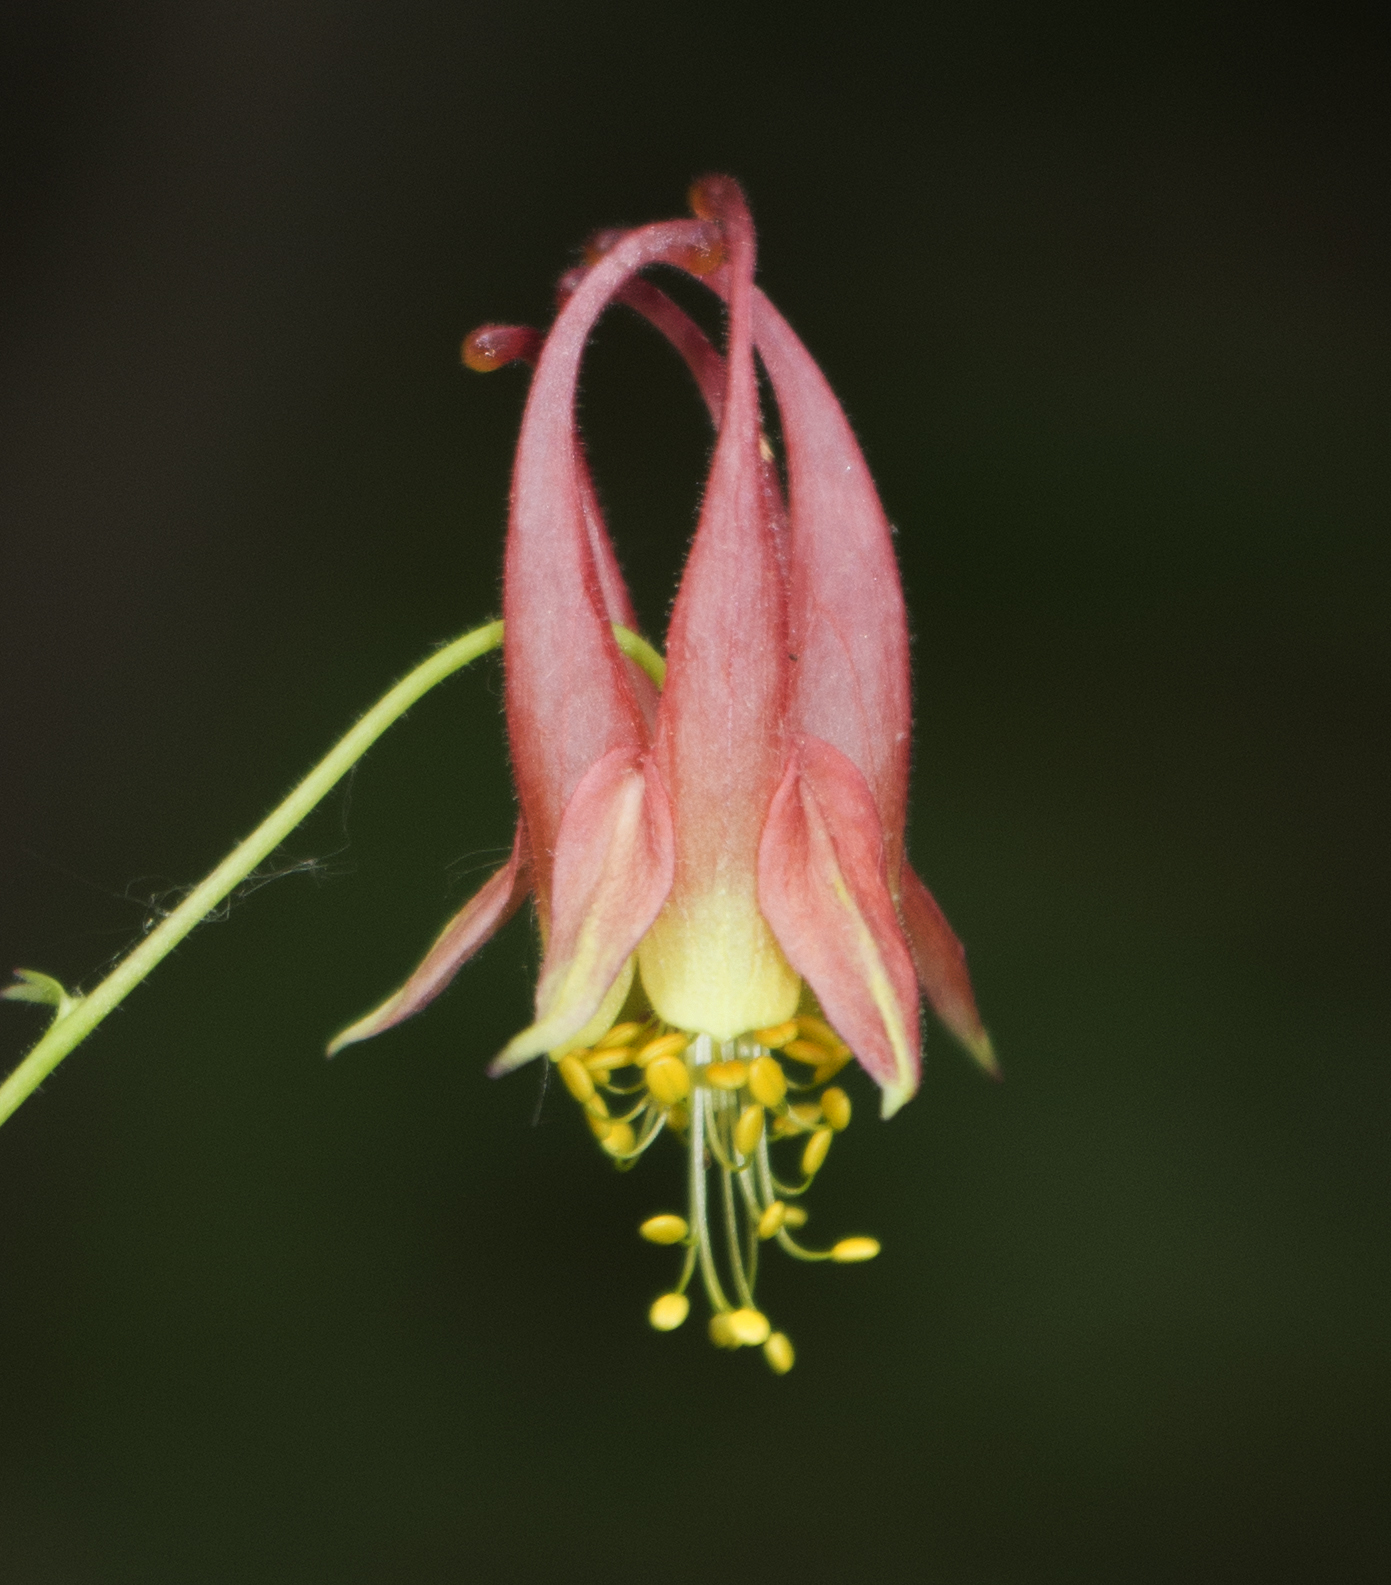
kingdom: Plantae
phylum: Tracheophyta
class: Magnoliopsida
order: Ranunculales
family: Ranunculaceae
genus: Aquilegia
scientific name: Aquilegia canadensis
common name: American columbine
